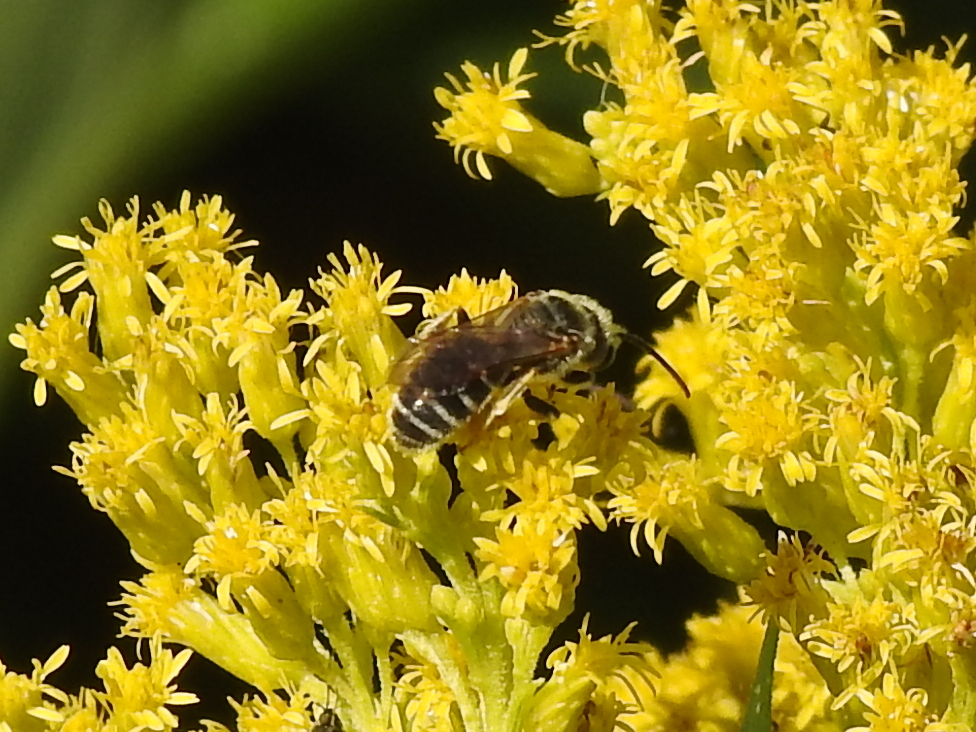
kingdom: Animalia
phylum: Arthropoda
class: Insecta
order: Hymenoptera
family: Halictidae
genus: Halictus
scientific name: Halictus ligatus
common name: Ligated furrow bee
